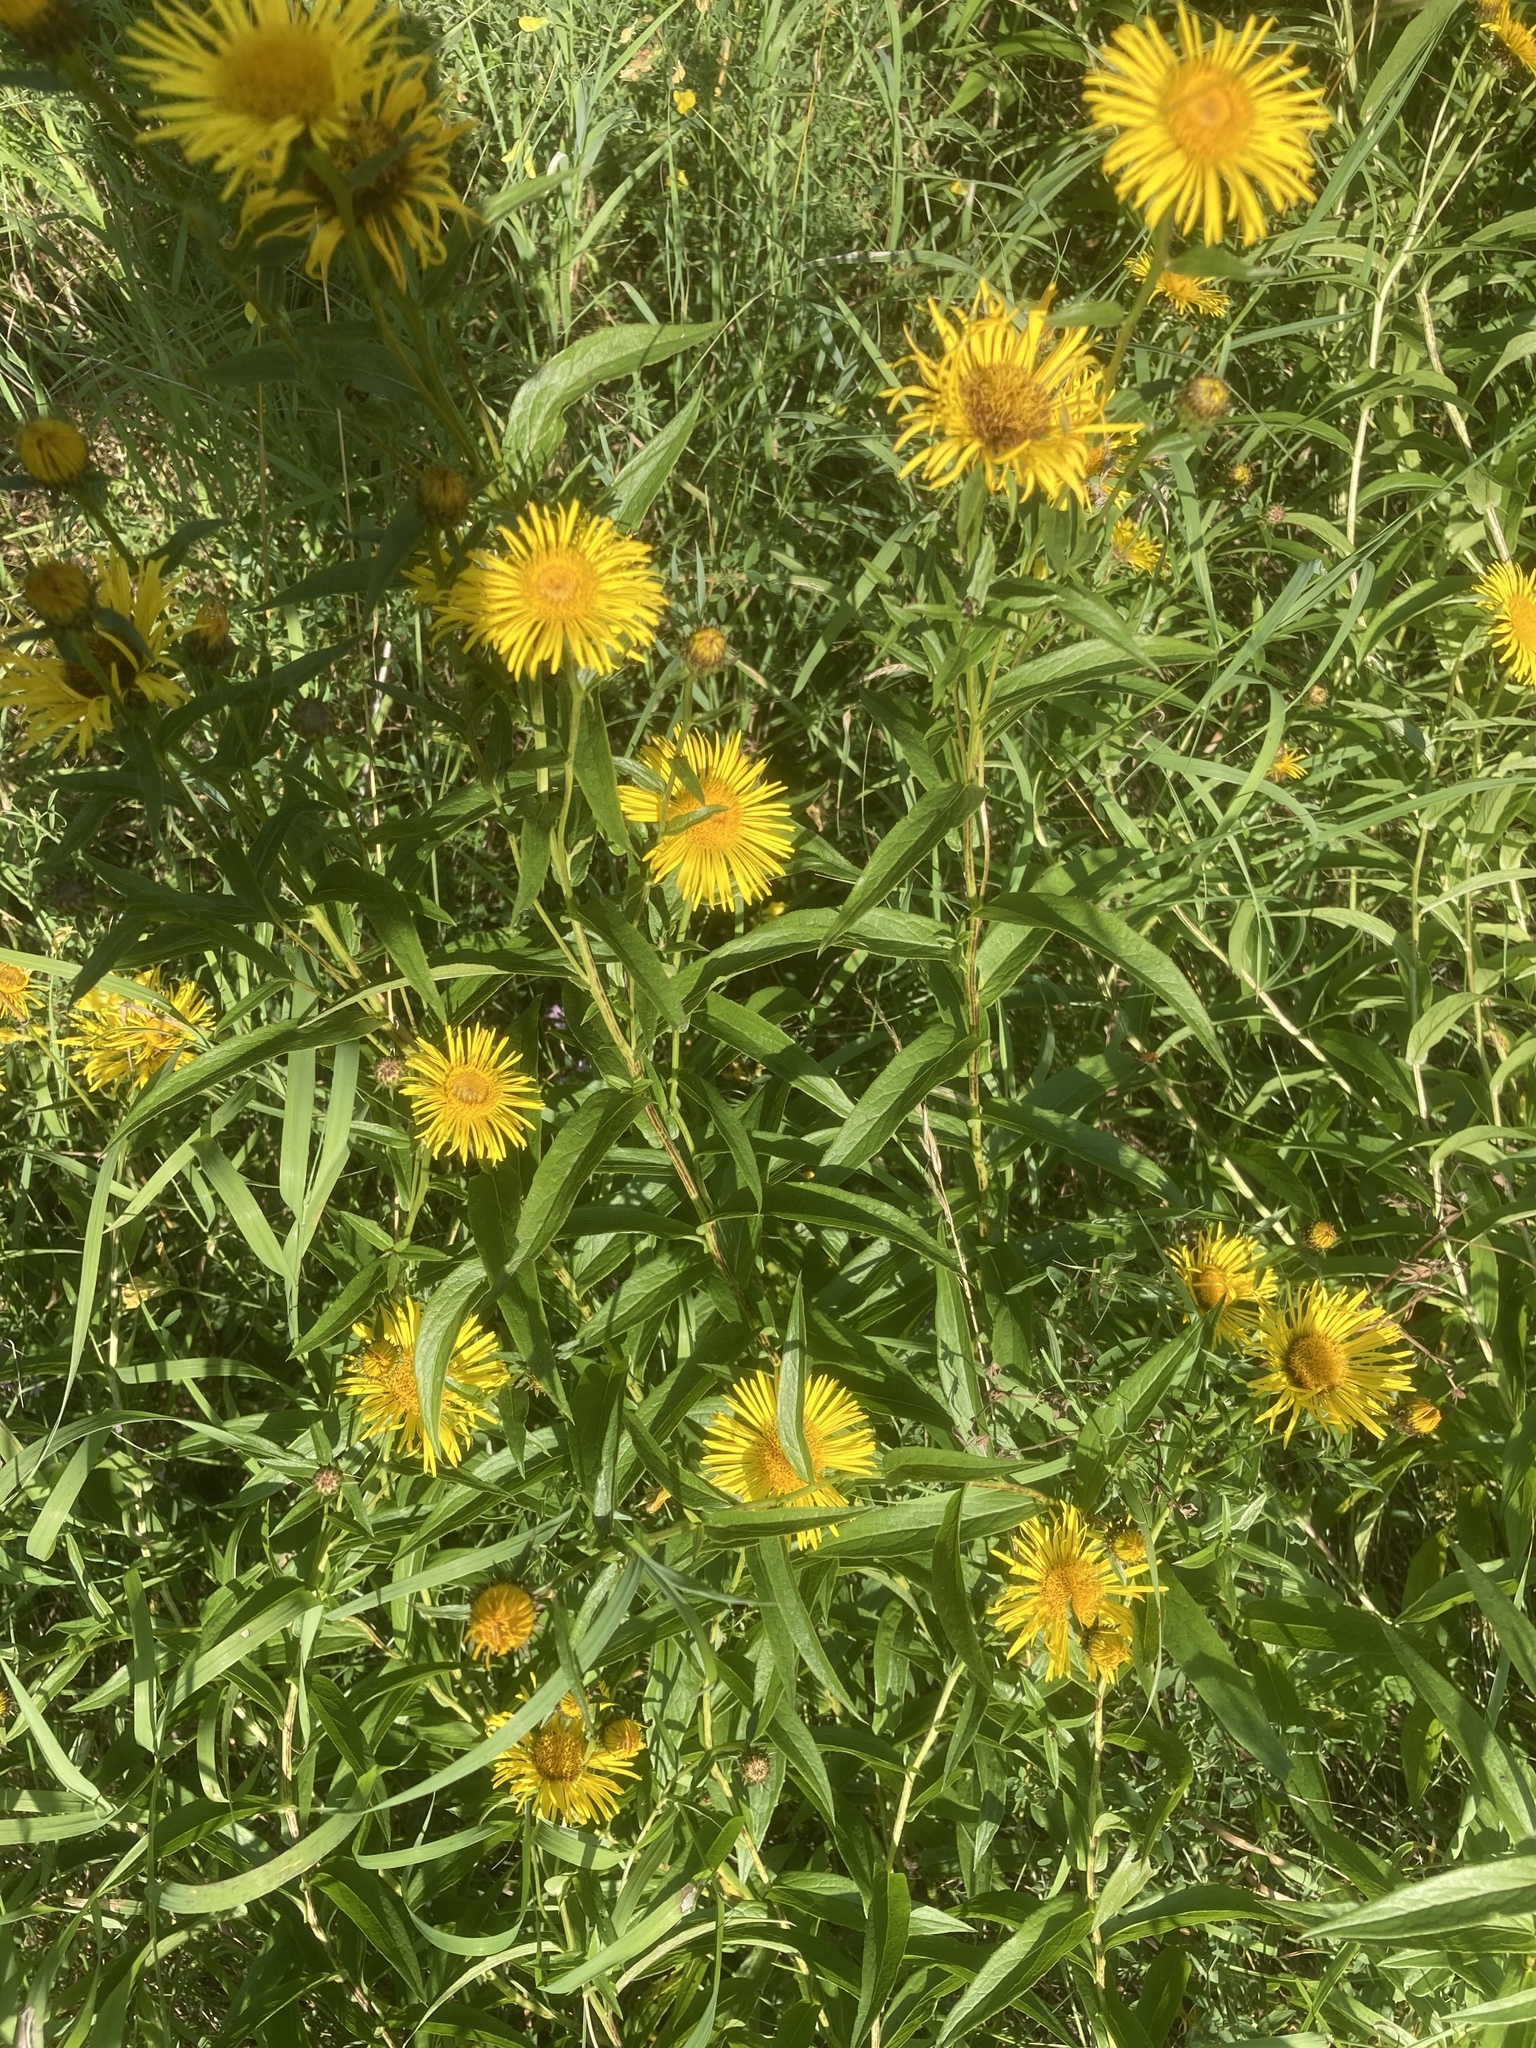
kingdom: Plantae
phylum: Tracheophyta
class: Magnoliopsida
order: Asterales
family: Asteraceae
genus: Pentanema
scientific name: Pentanema salicinum
